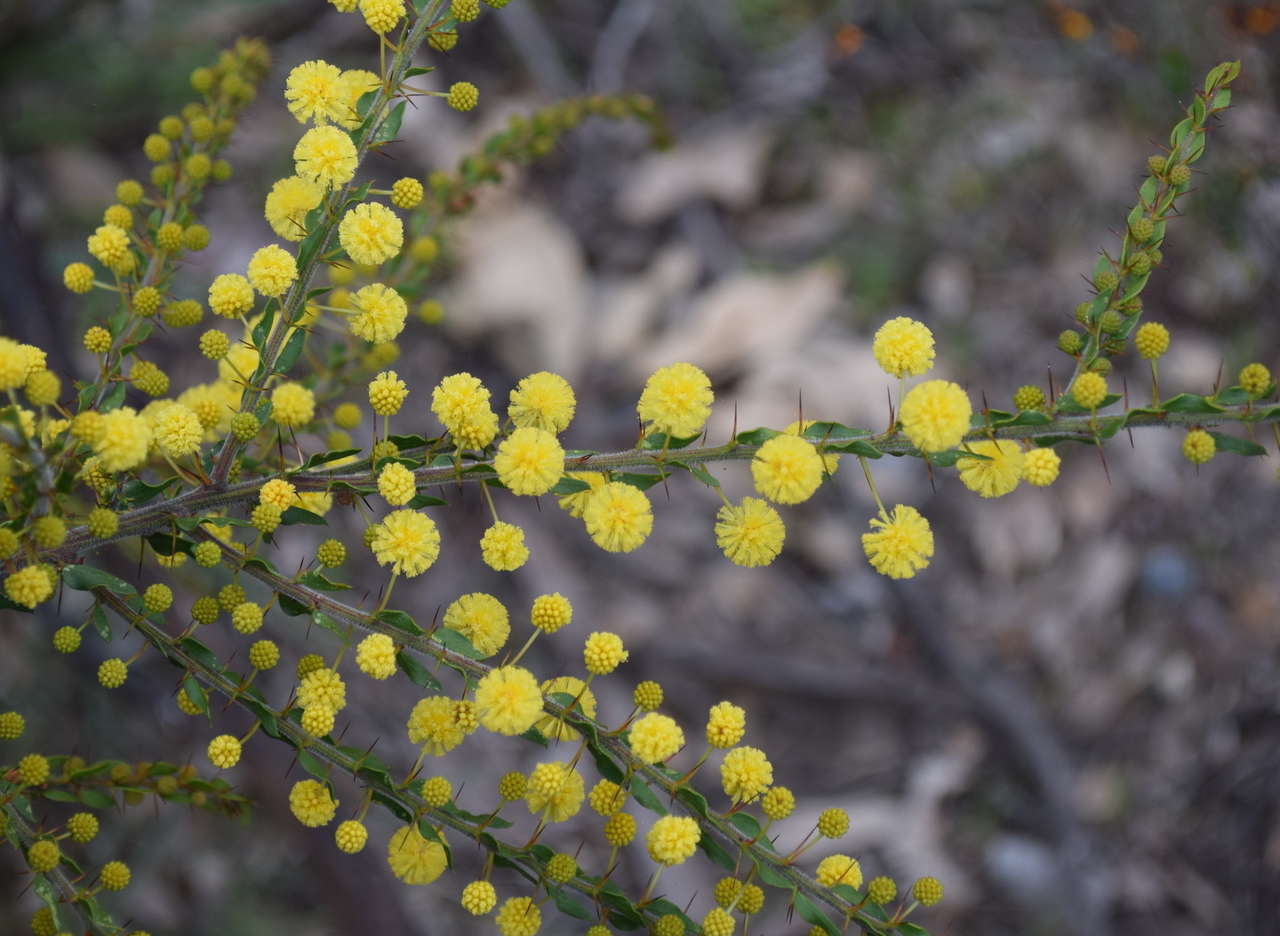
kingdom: Plantae
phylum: Tracheophyta
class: Magnoliopsida
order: Fabales
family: Fabaceae
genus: Acacia
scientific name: Acacia paradoxa
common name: Paradox acacia
